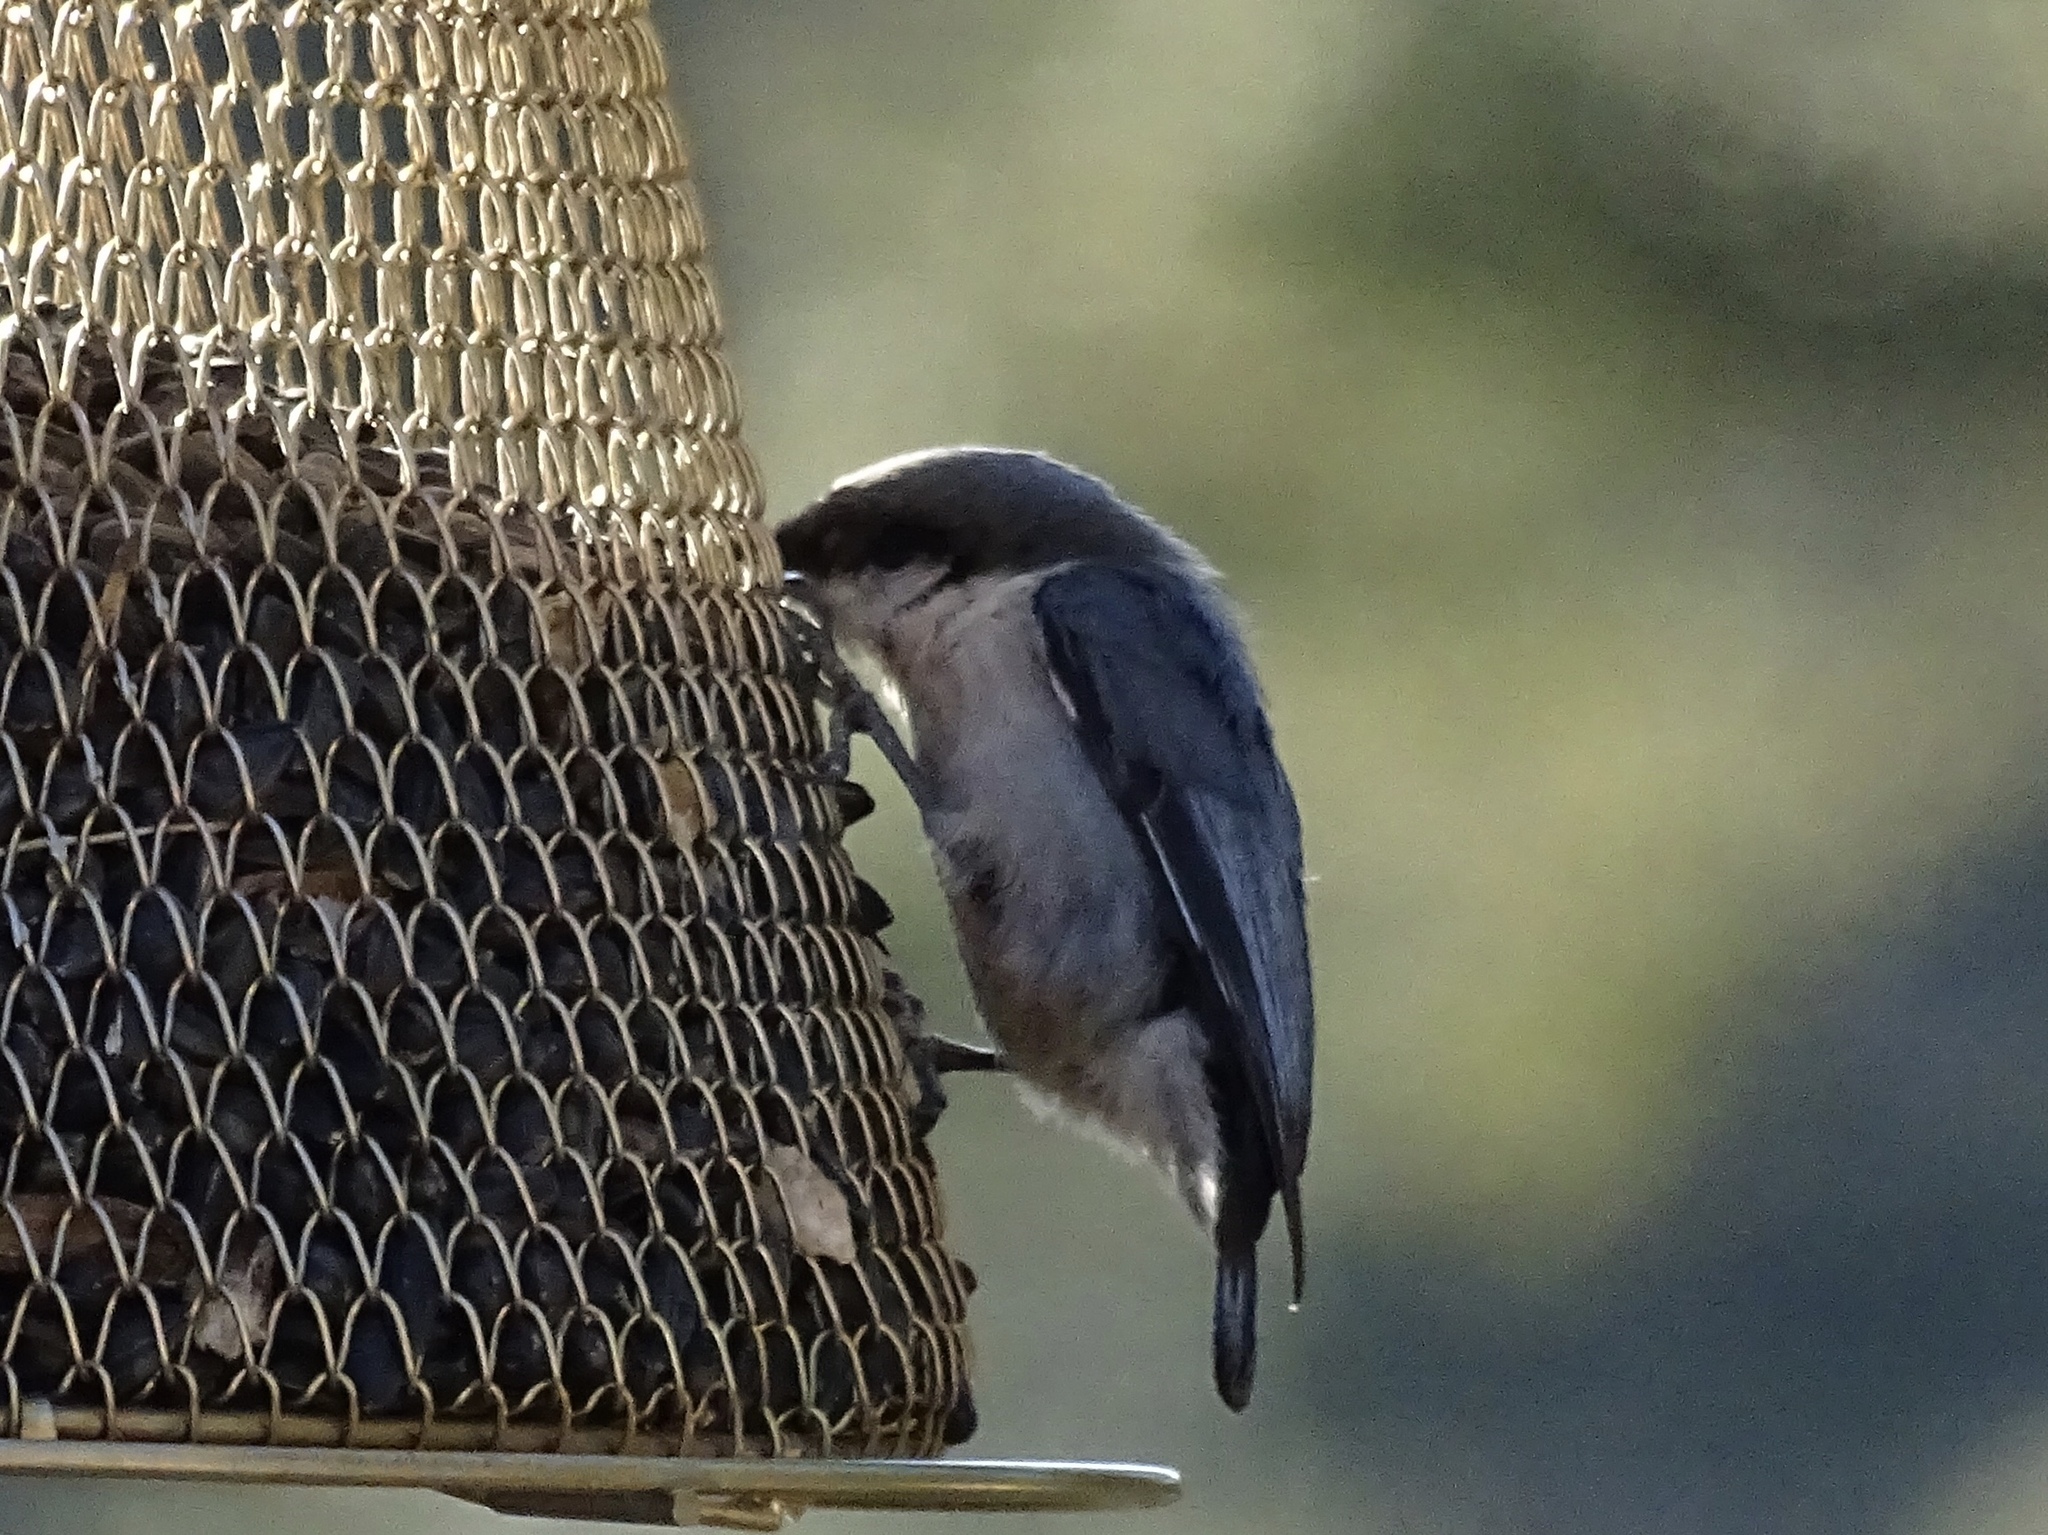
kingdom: Animalia
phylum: Chordata
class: Aves
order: Passeriformes
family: Sittidae
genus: Sitta
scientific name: Sitta pygmaea
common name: Pygmy nuthatch
